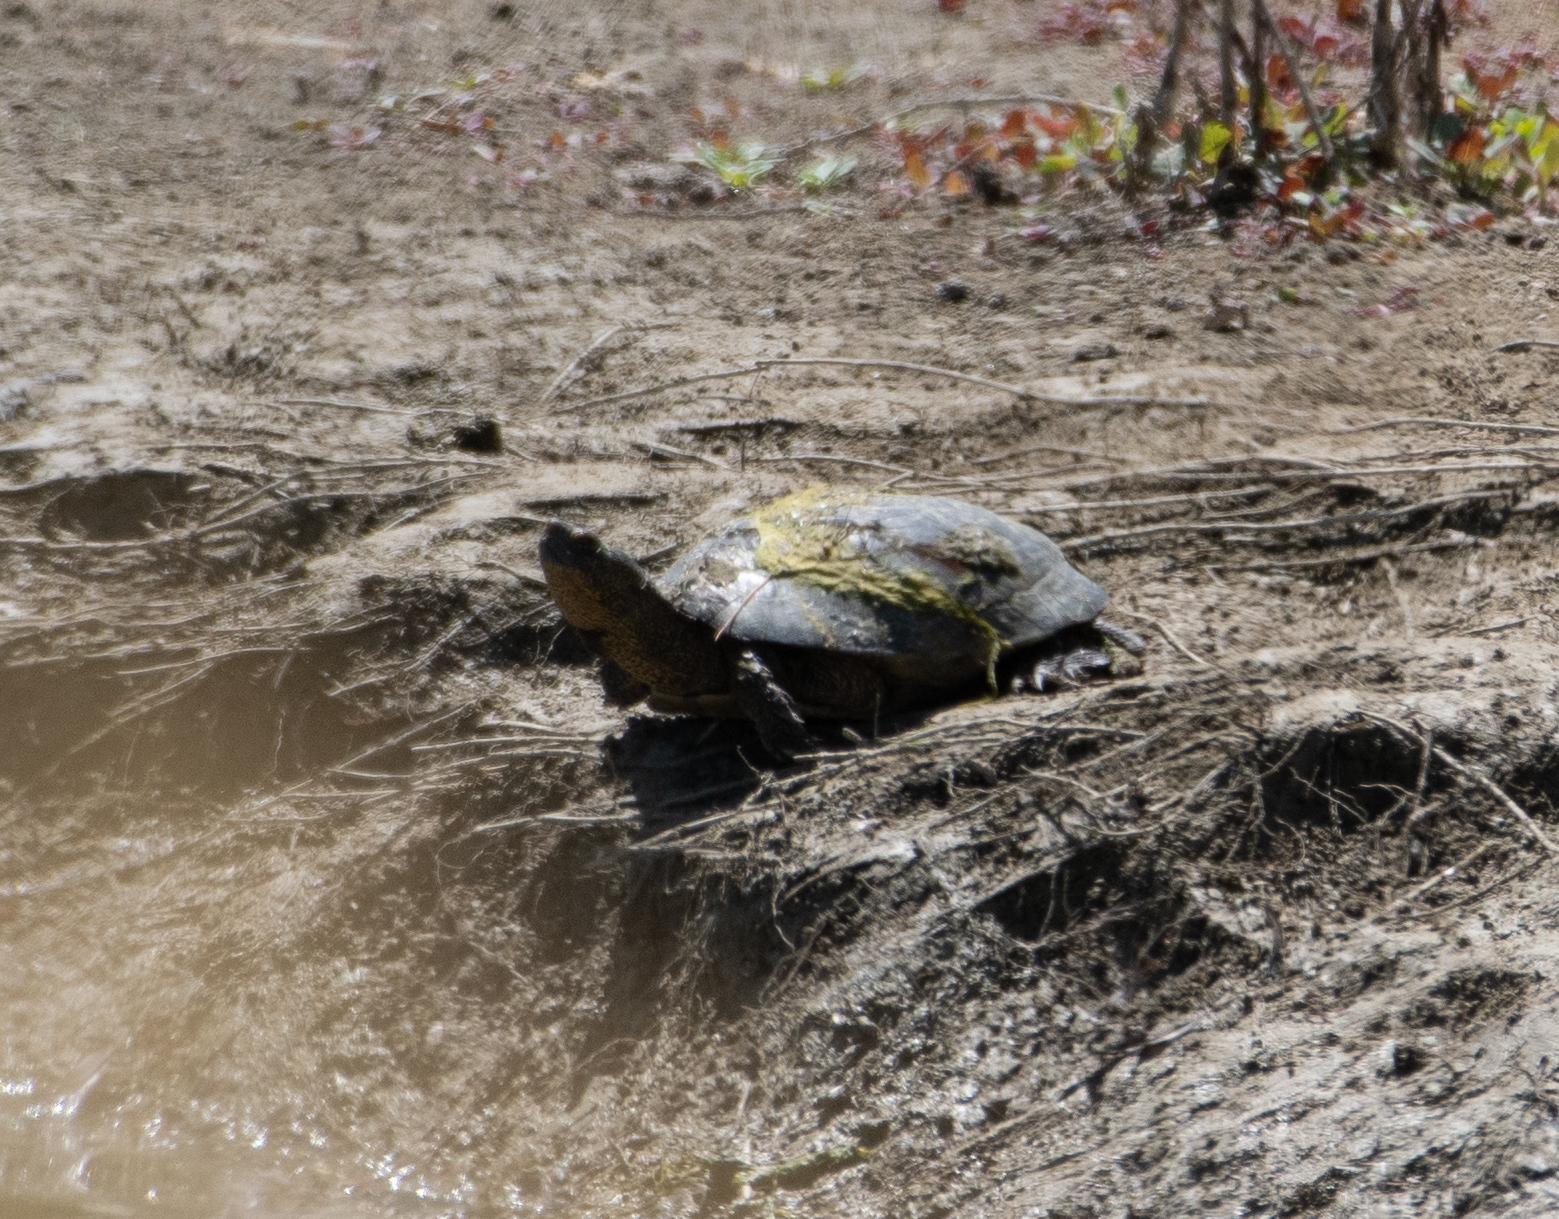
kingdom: Animalia
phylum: Chordata
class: Testudines
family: Emydidae
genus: Actinemys
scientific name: Actinemys marmorata
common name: Western pond turtle
